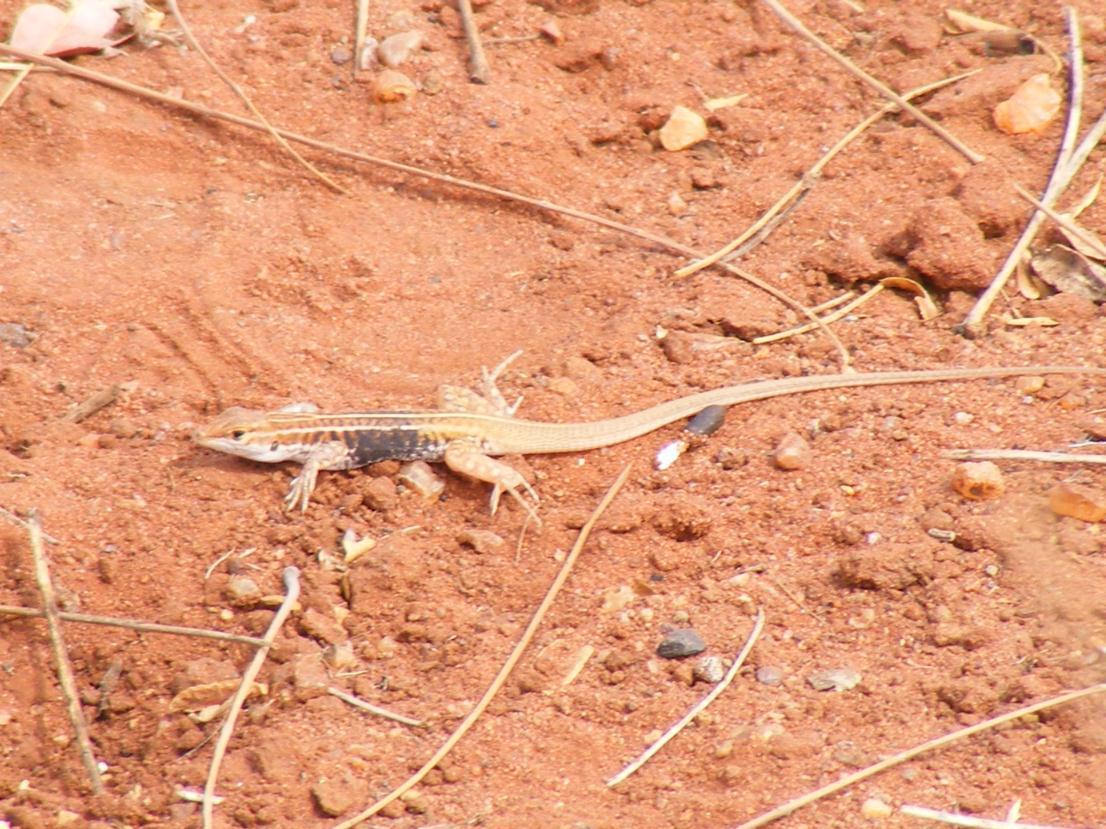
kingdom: Animalia
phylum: Chordata
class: Squamata
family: Lacertidae
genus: Heliobolus
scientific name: Heliobolus lugubris
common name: Bushveld lizard
